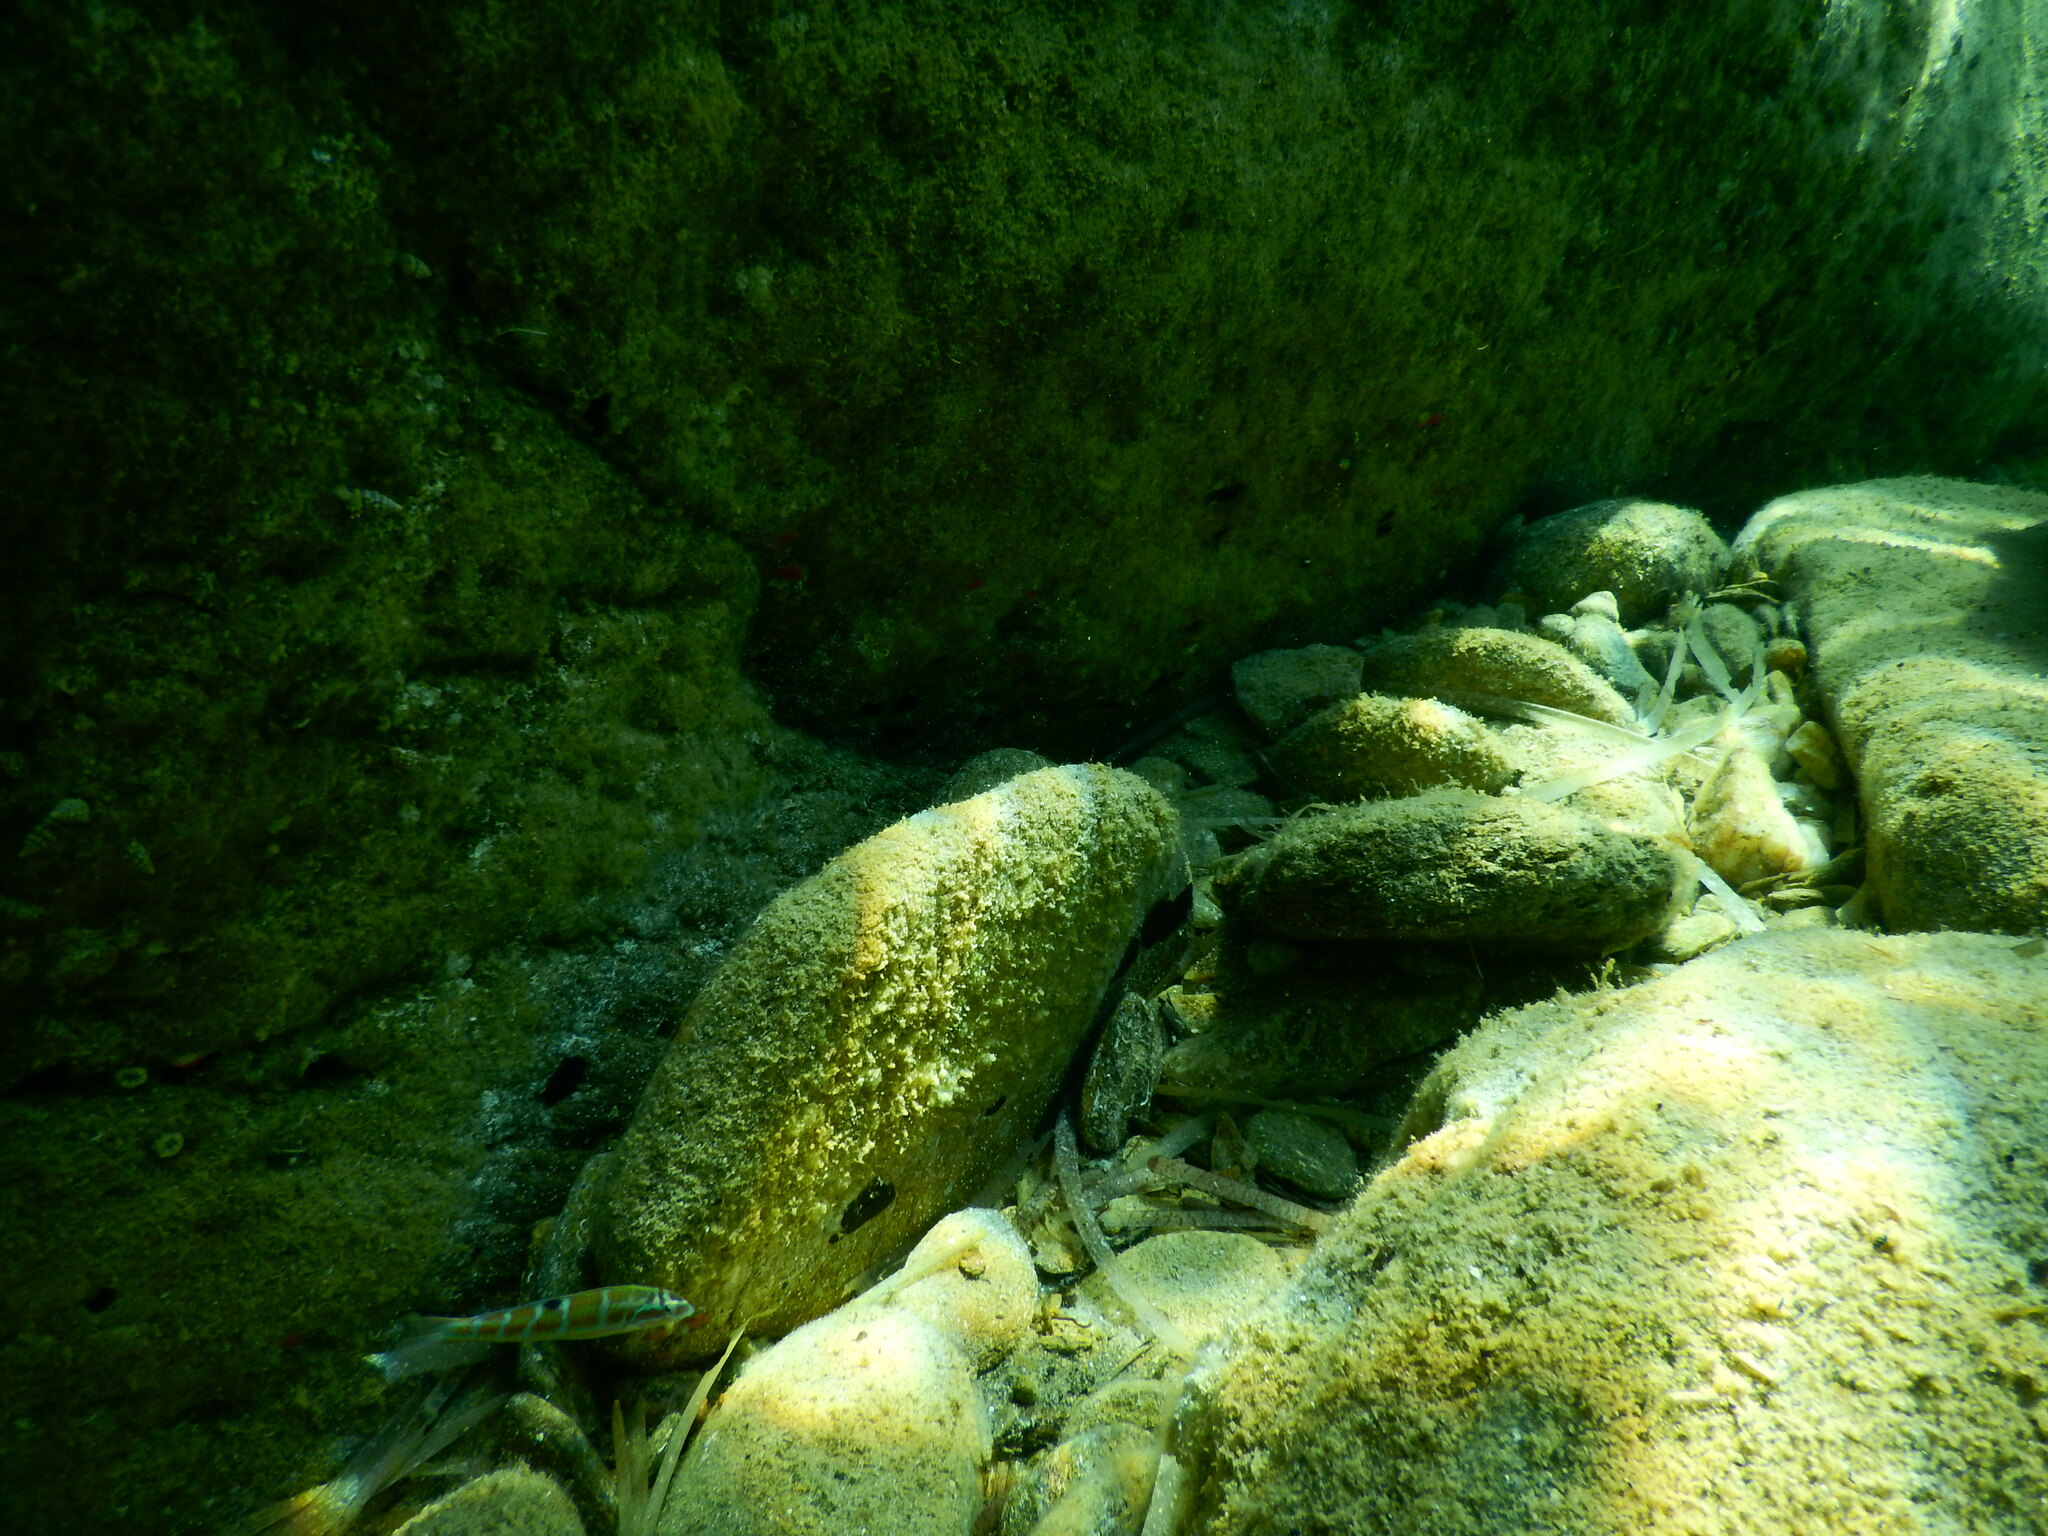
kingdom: Animalia
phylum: Chordata
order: Perciformes
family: Labridae
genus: Thalassoma
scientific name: Thalassoma pavo
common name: Ornate wrasse
